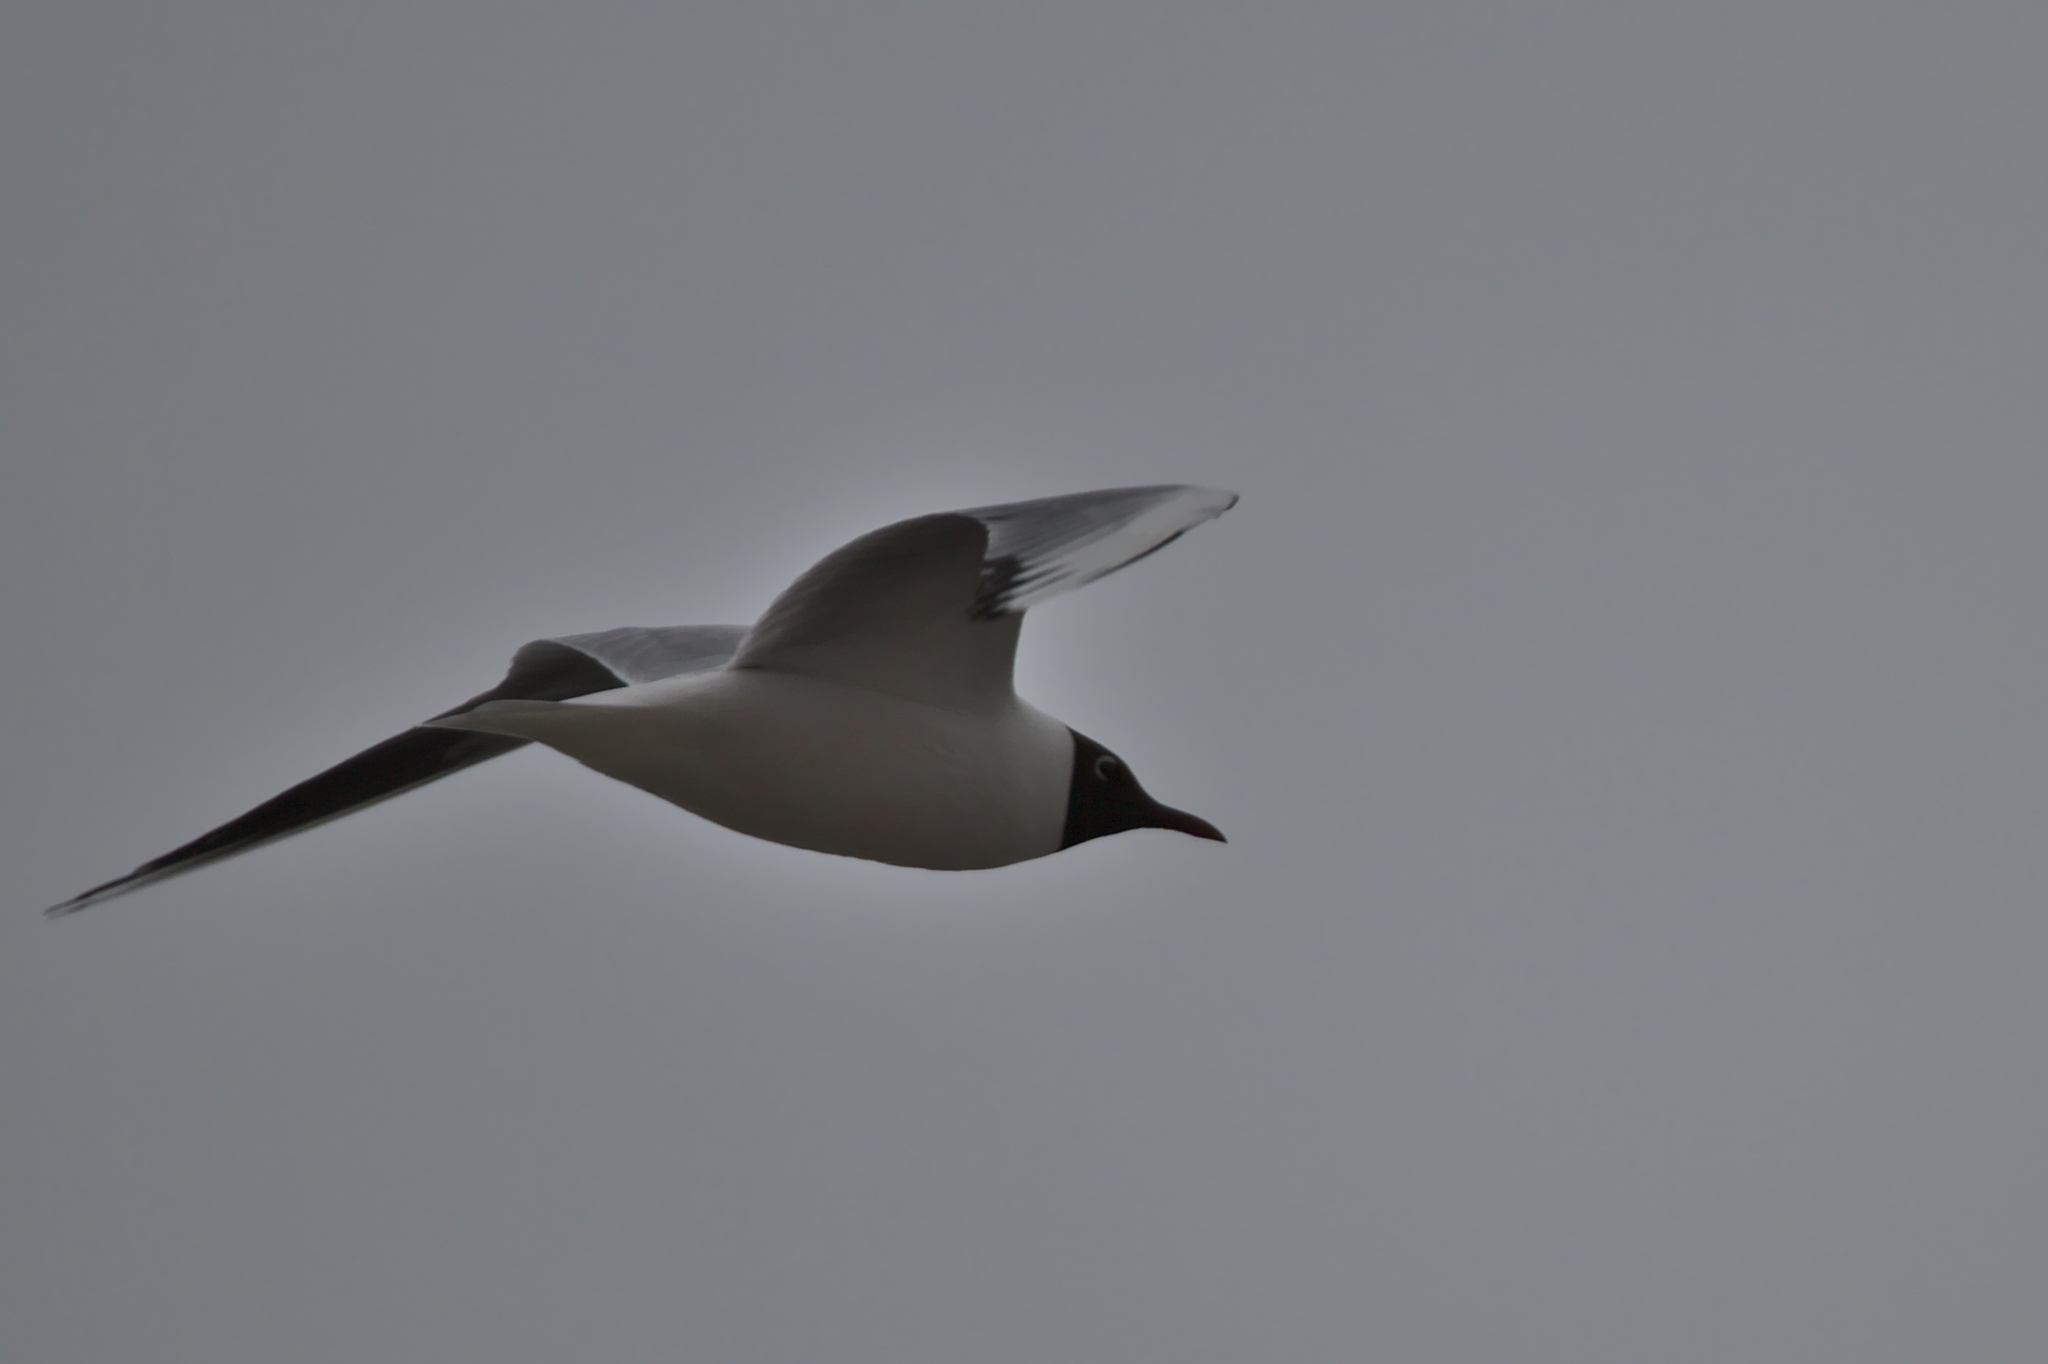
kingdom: Animalia
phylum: Chordata
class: Aves
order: Charadriiformes
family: Laridae
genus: Chroicocephalus
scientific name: Chroicocephalus ridibundus
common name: Black-headed gull
